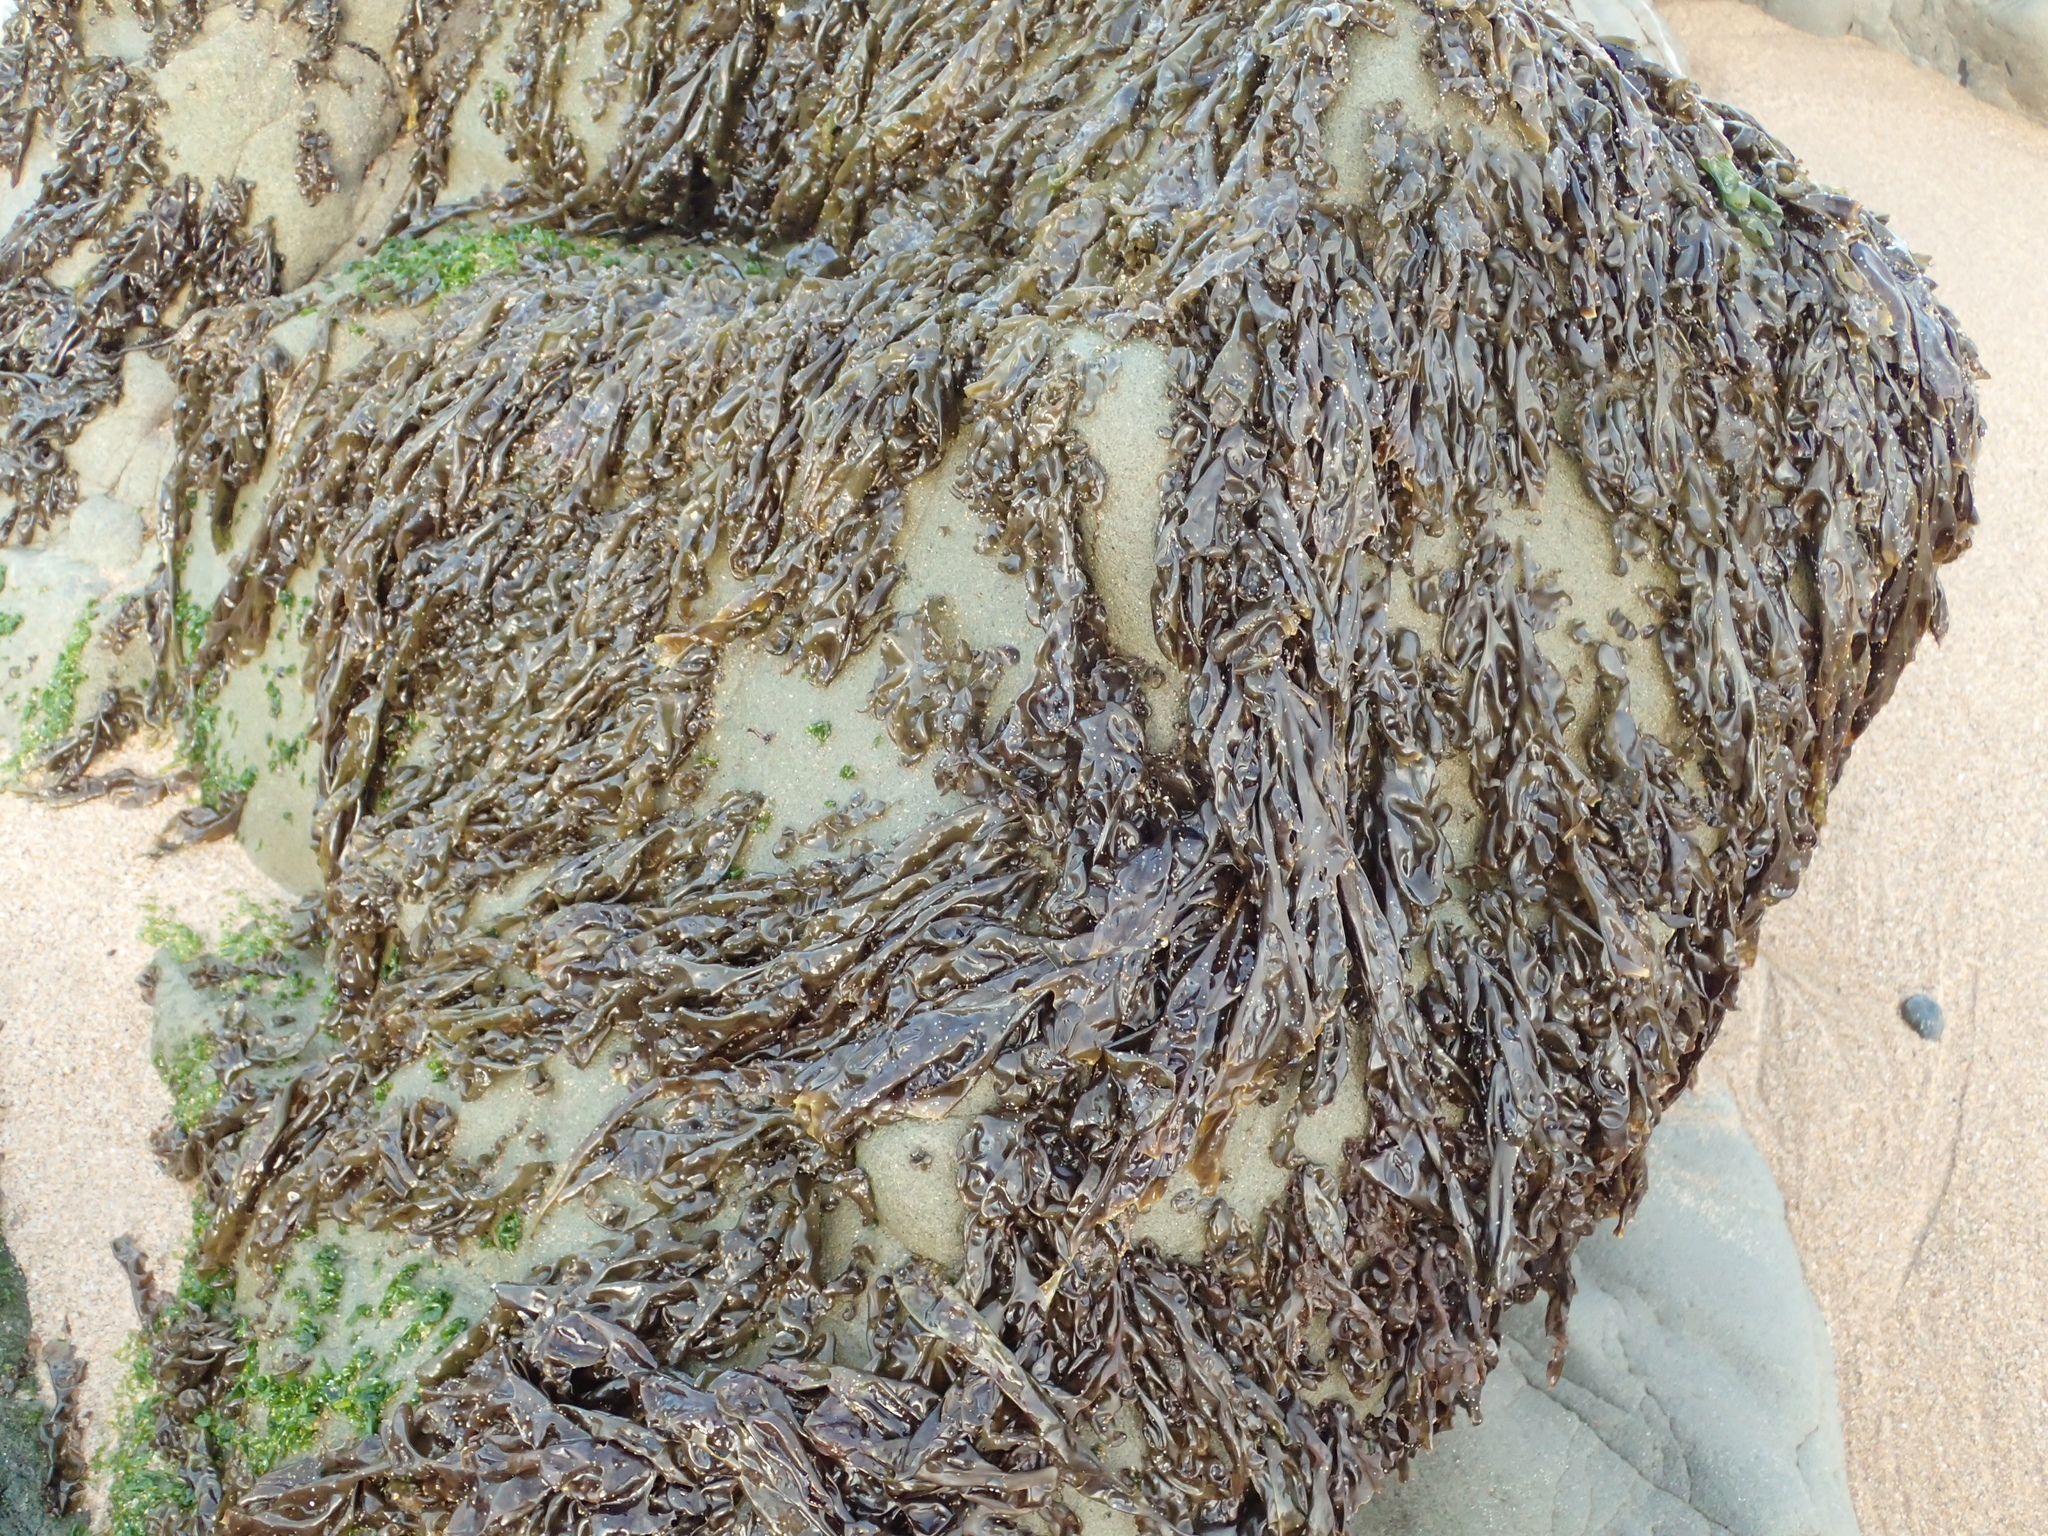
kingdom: Plantae
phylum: Rhodophyta
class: Bangiophyceae
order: Bangiales
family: Bangiaceae
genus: Neoporphyra
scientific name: Neoporphyra perforata
